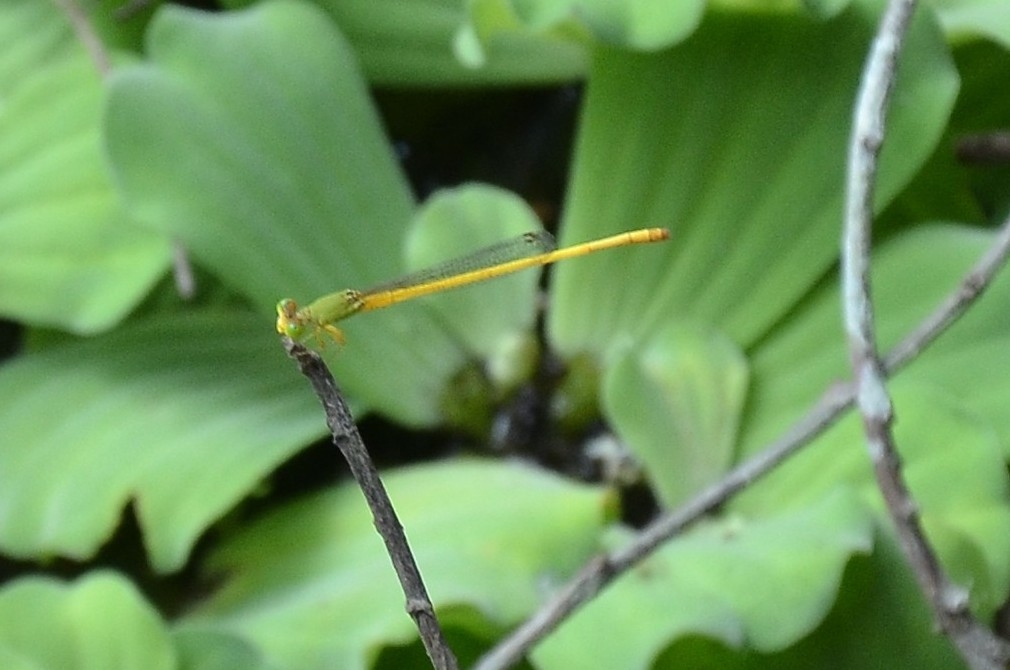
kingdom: Animalia
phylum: Arthropoda
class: Insecta
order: Odonata
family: Coenagrionidae
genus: Ceriagrion
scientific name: Ceriagrion coromandelianum
